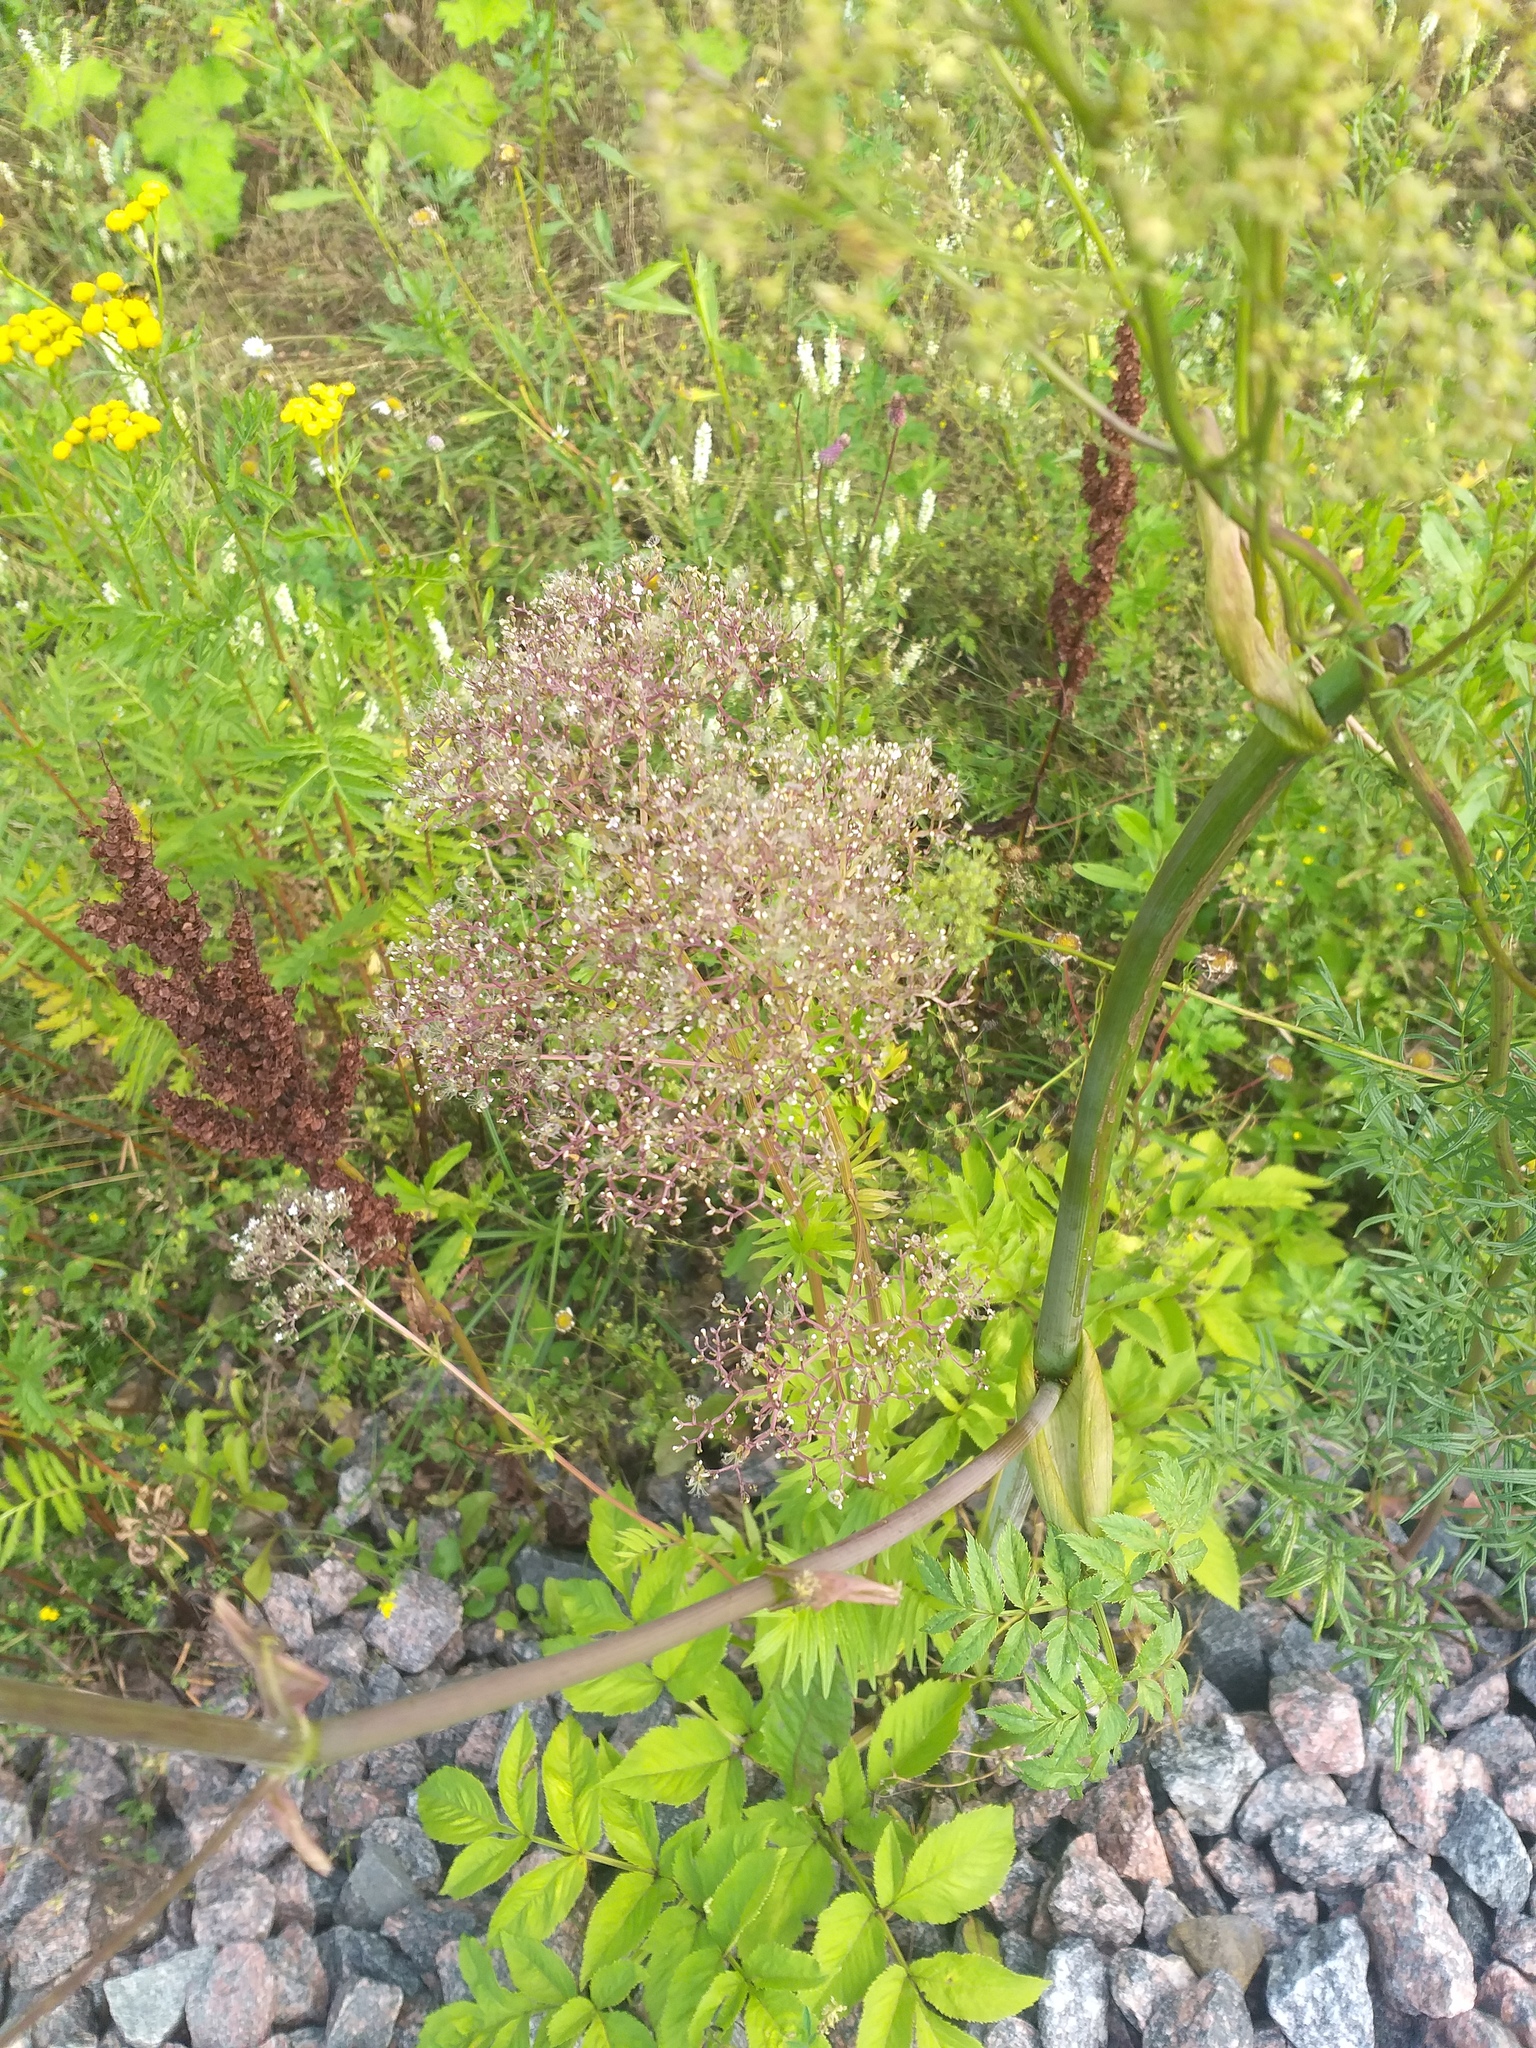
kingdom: Plantae
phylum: Tracheophyta
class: Magnoliopsida
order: Dipsacales
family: Caprifoliaceae
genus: Valeriana
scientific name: Valeriana officinalis
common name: Common valerian
